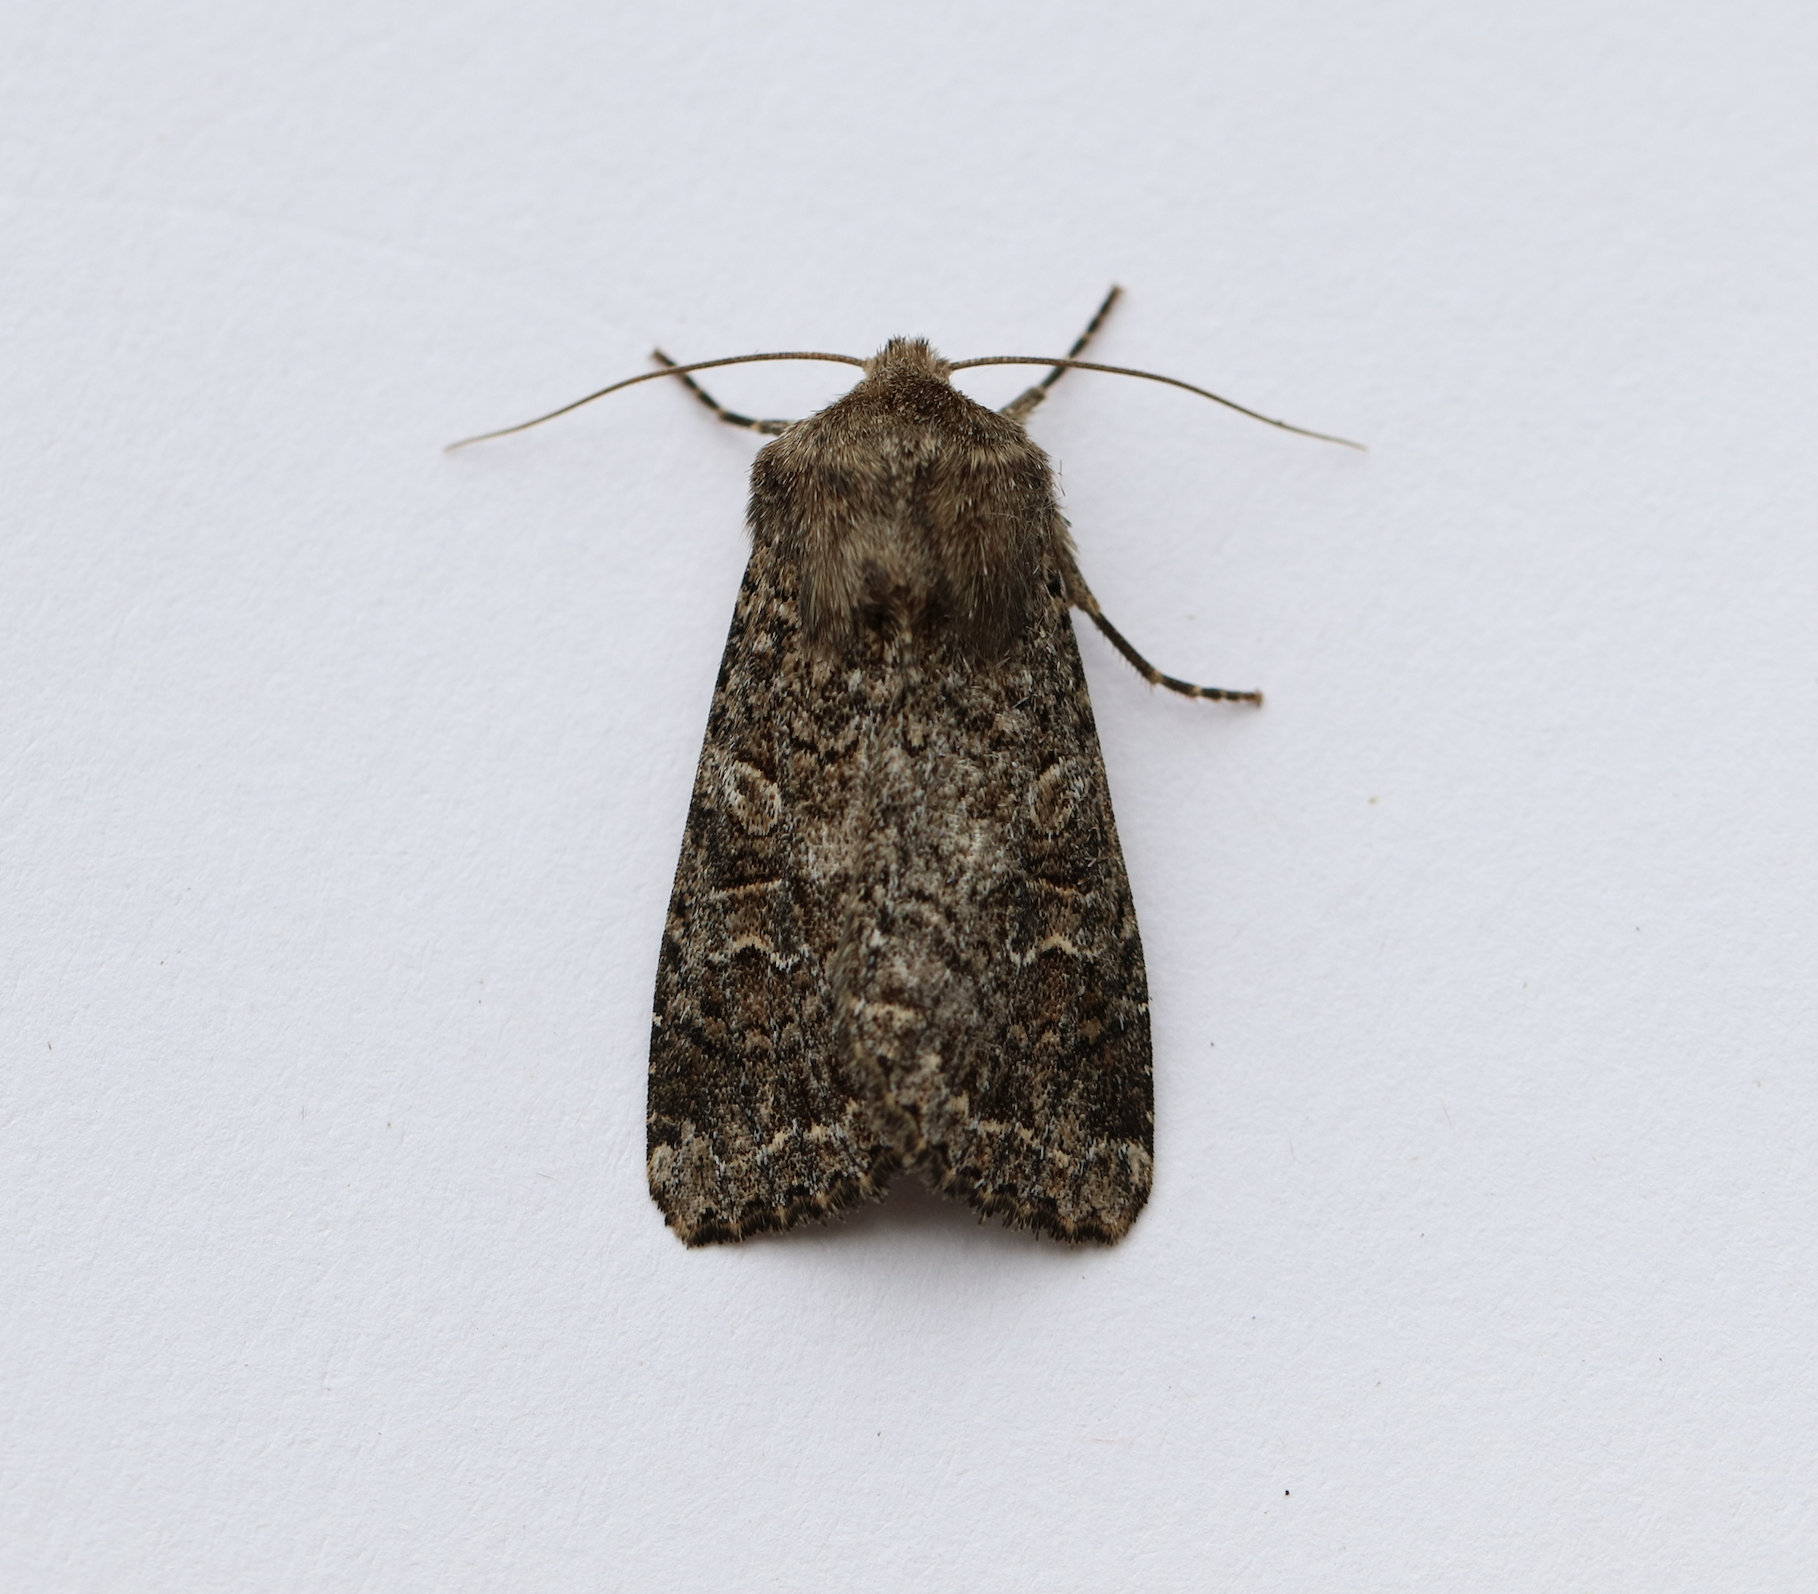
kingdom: Animalia
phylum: Arthropoda
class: Insecta
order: Lepidoptera
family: Noctuidae
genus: Apamea
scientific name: Apamea devastator
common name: Glassy cutworm
